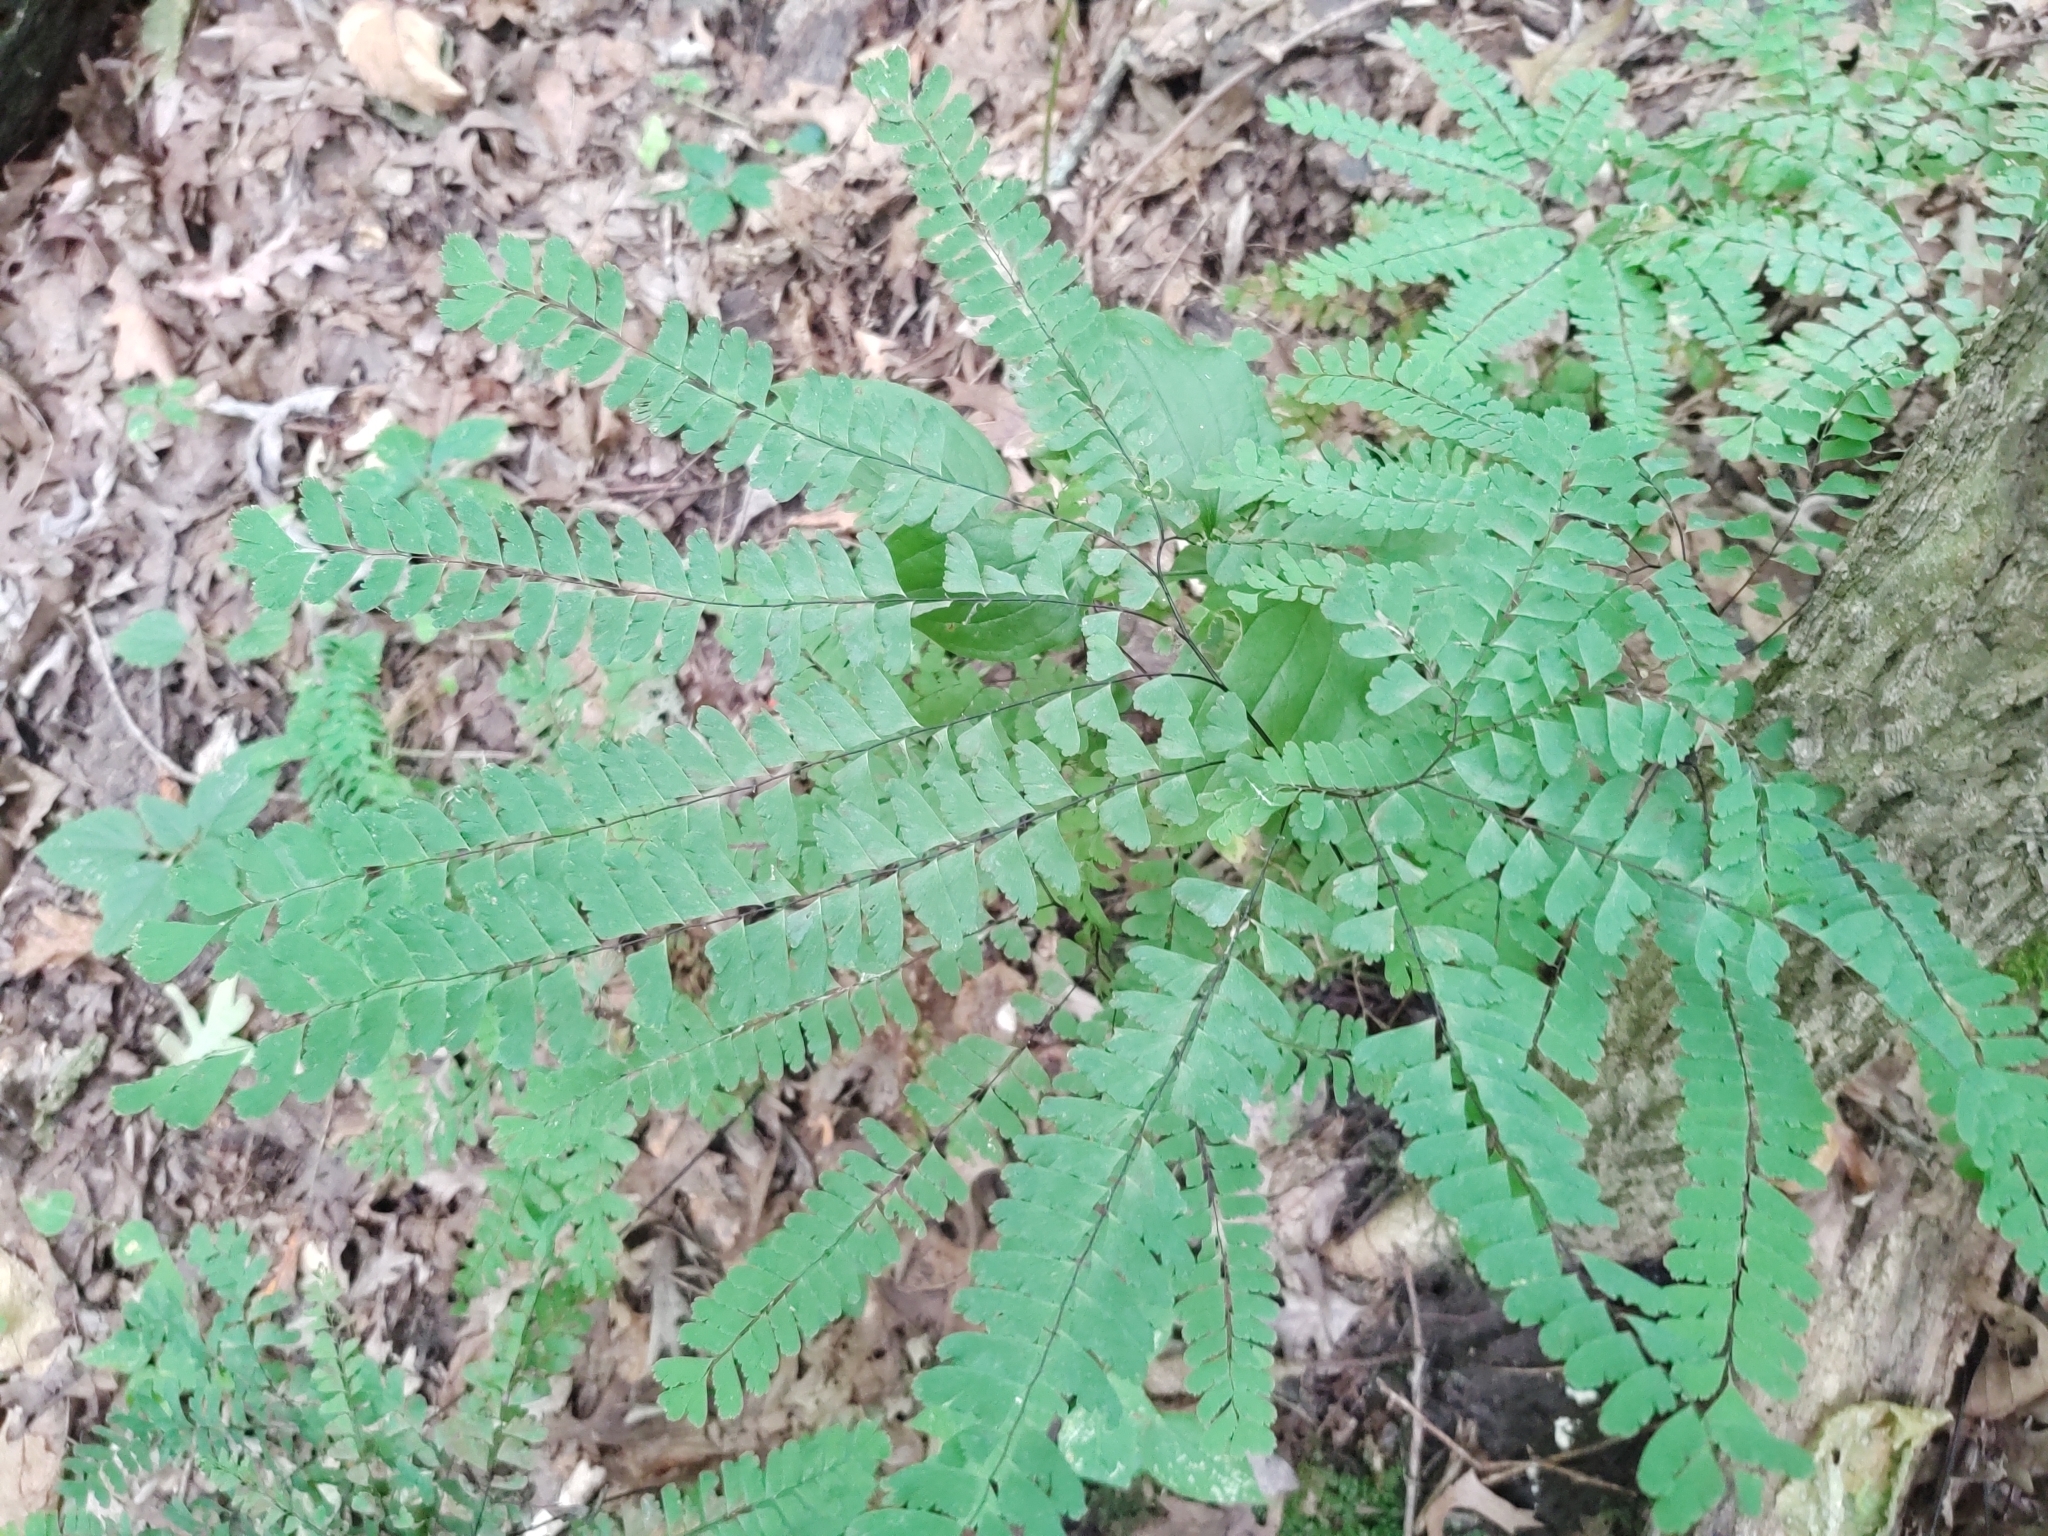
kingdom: Plantae
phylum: Tracheophyta
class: Polypodiopsida
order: Polypodiales
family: Pteridaceae
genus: Adiantum
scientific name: Adiantum pedatum
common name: Five-finger fern
